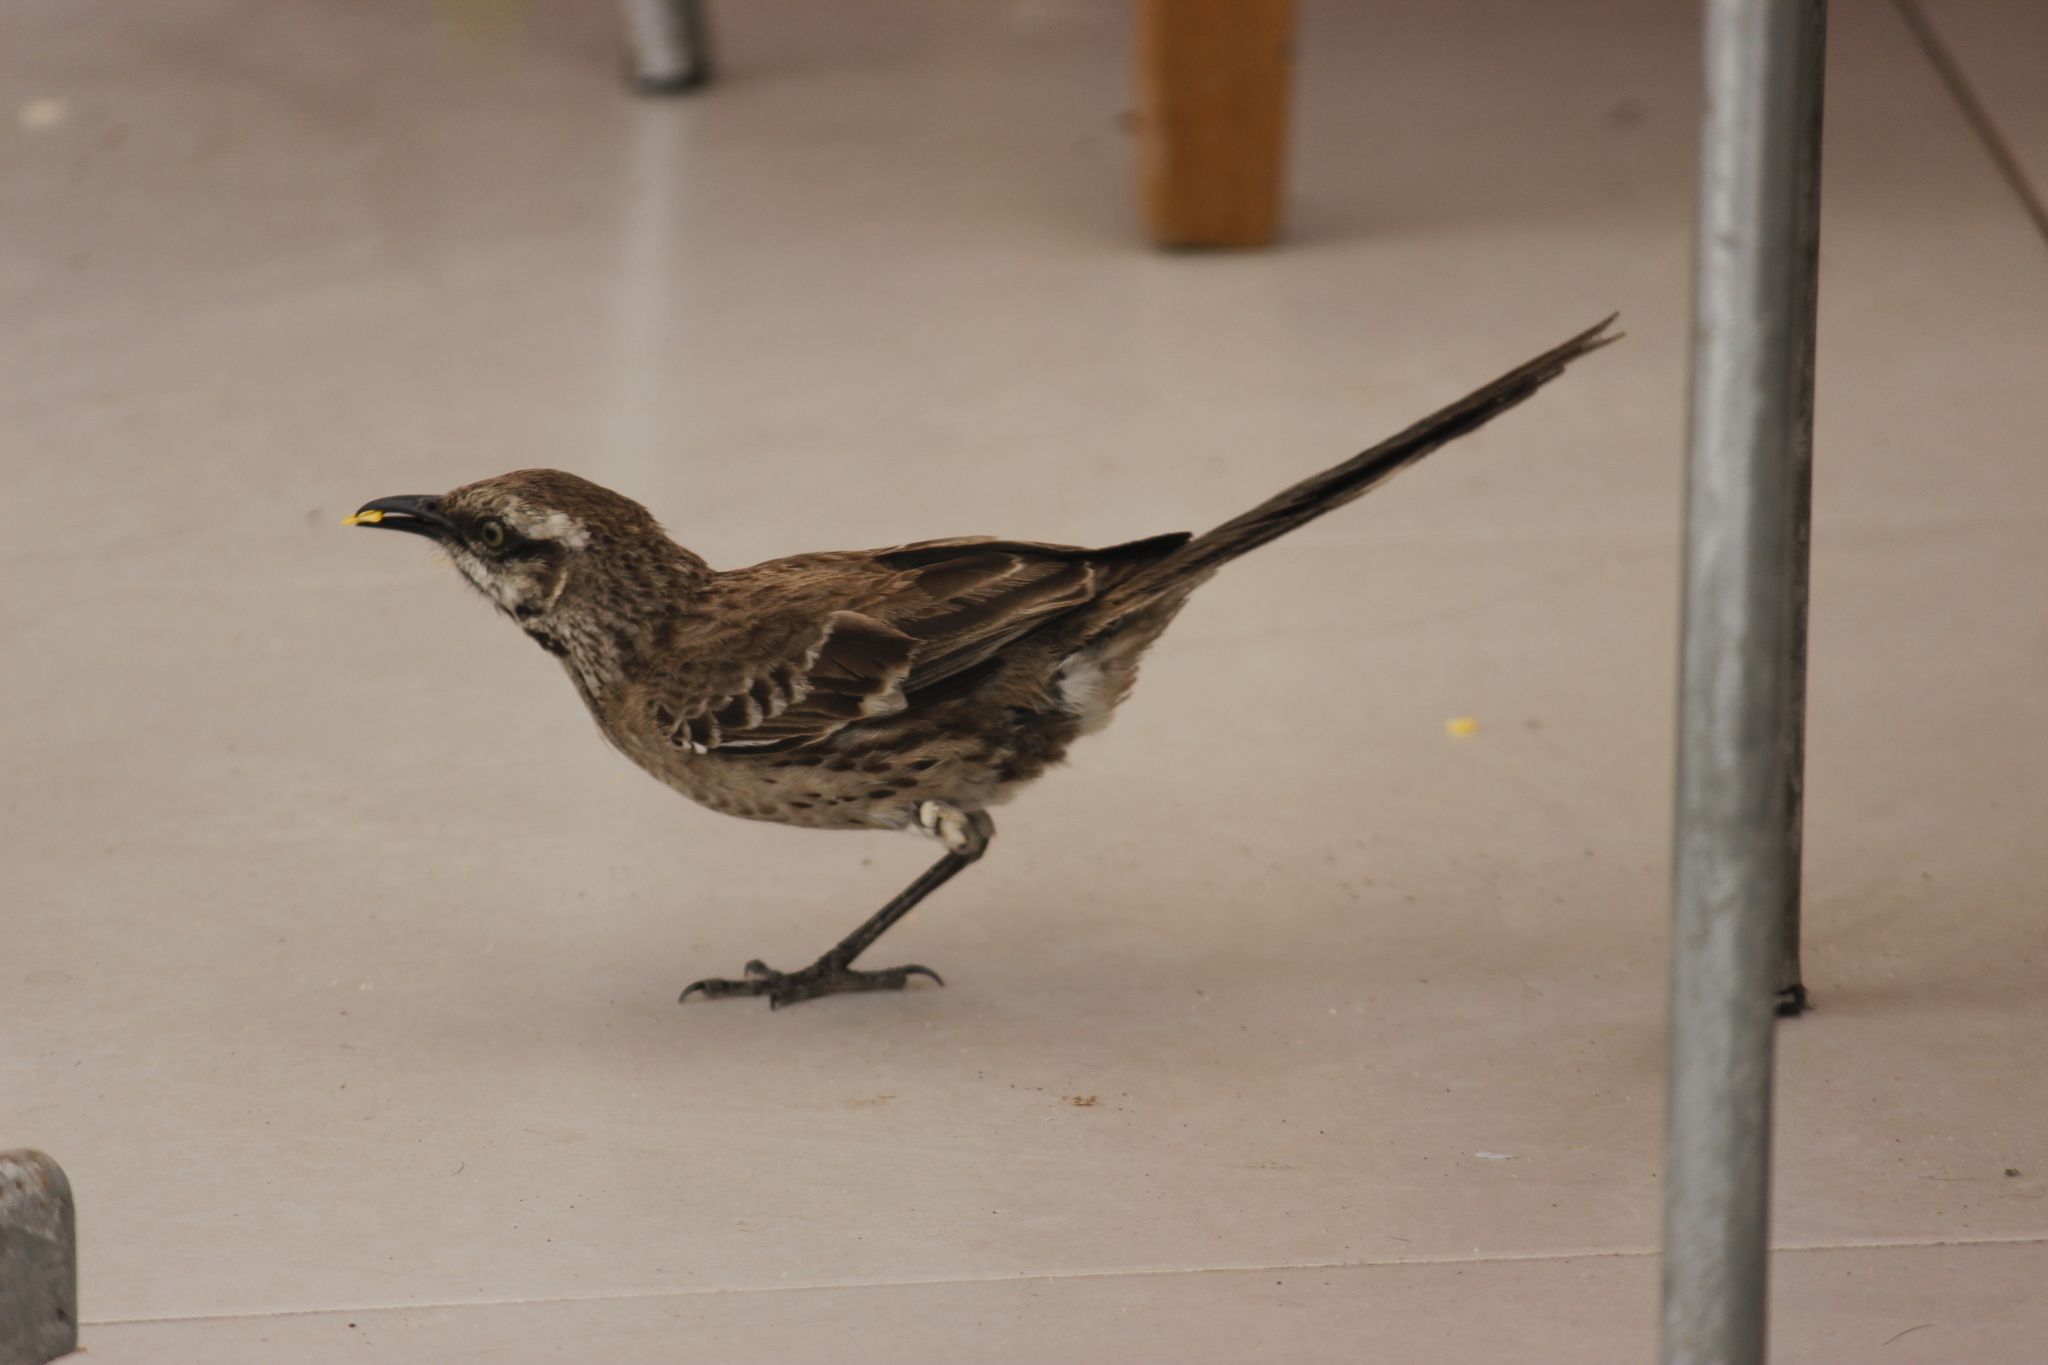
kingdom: Animalia
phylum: Chordata
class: Aves
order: Passeriformes
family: Mimidae
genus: Mimus
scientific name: Mimus longicaudatus
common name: Long-tailed mockingbird
